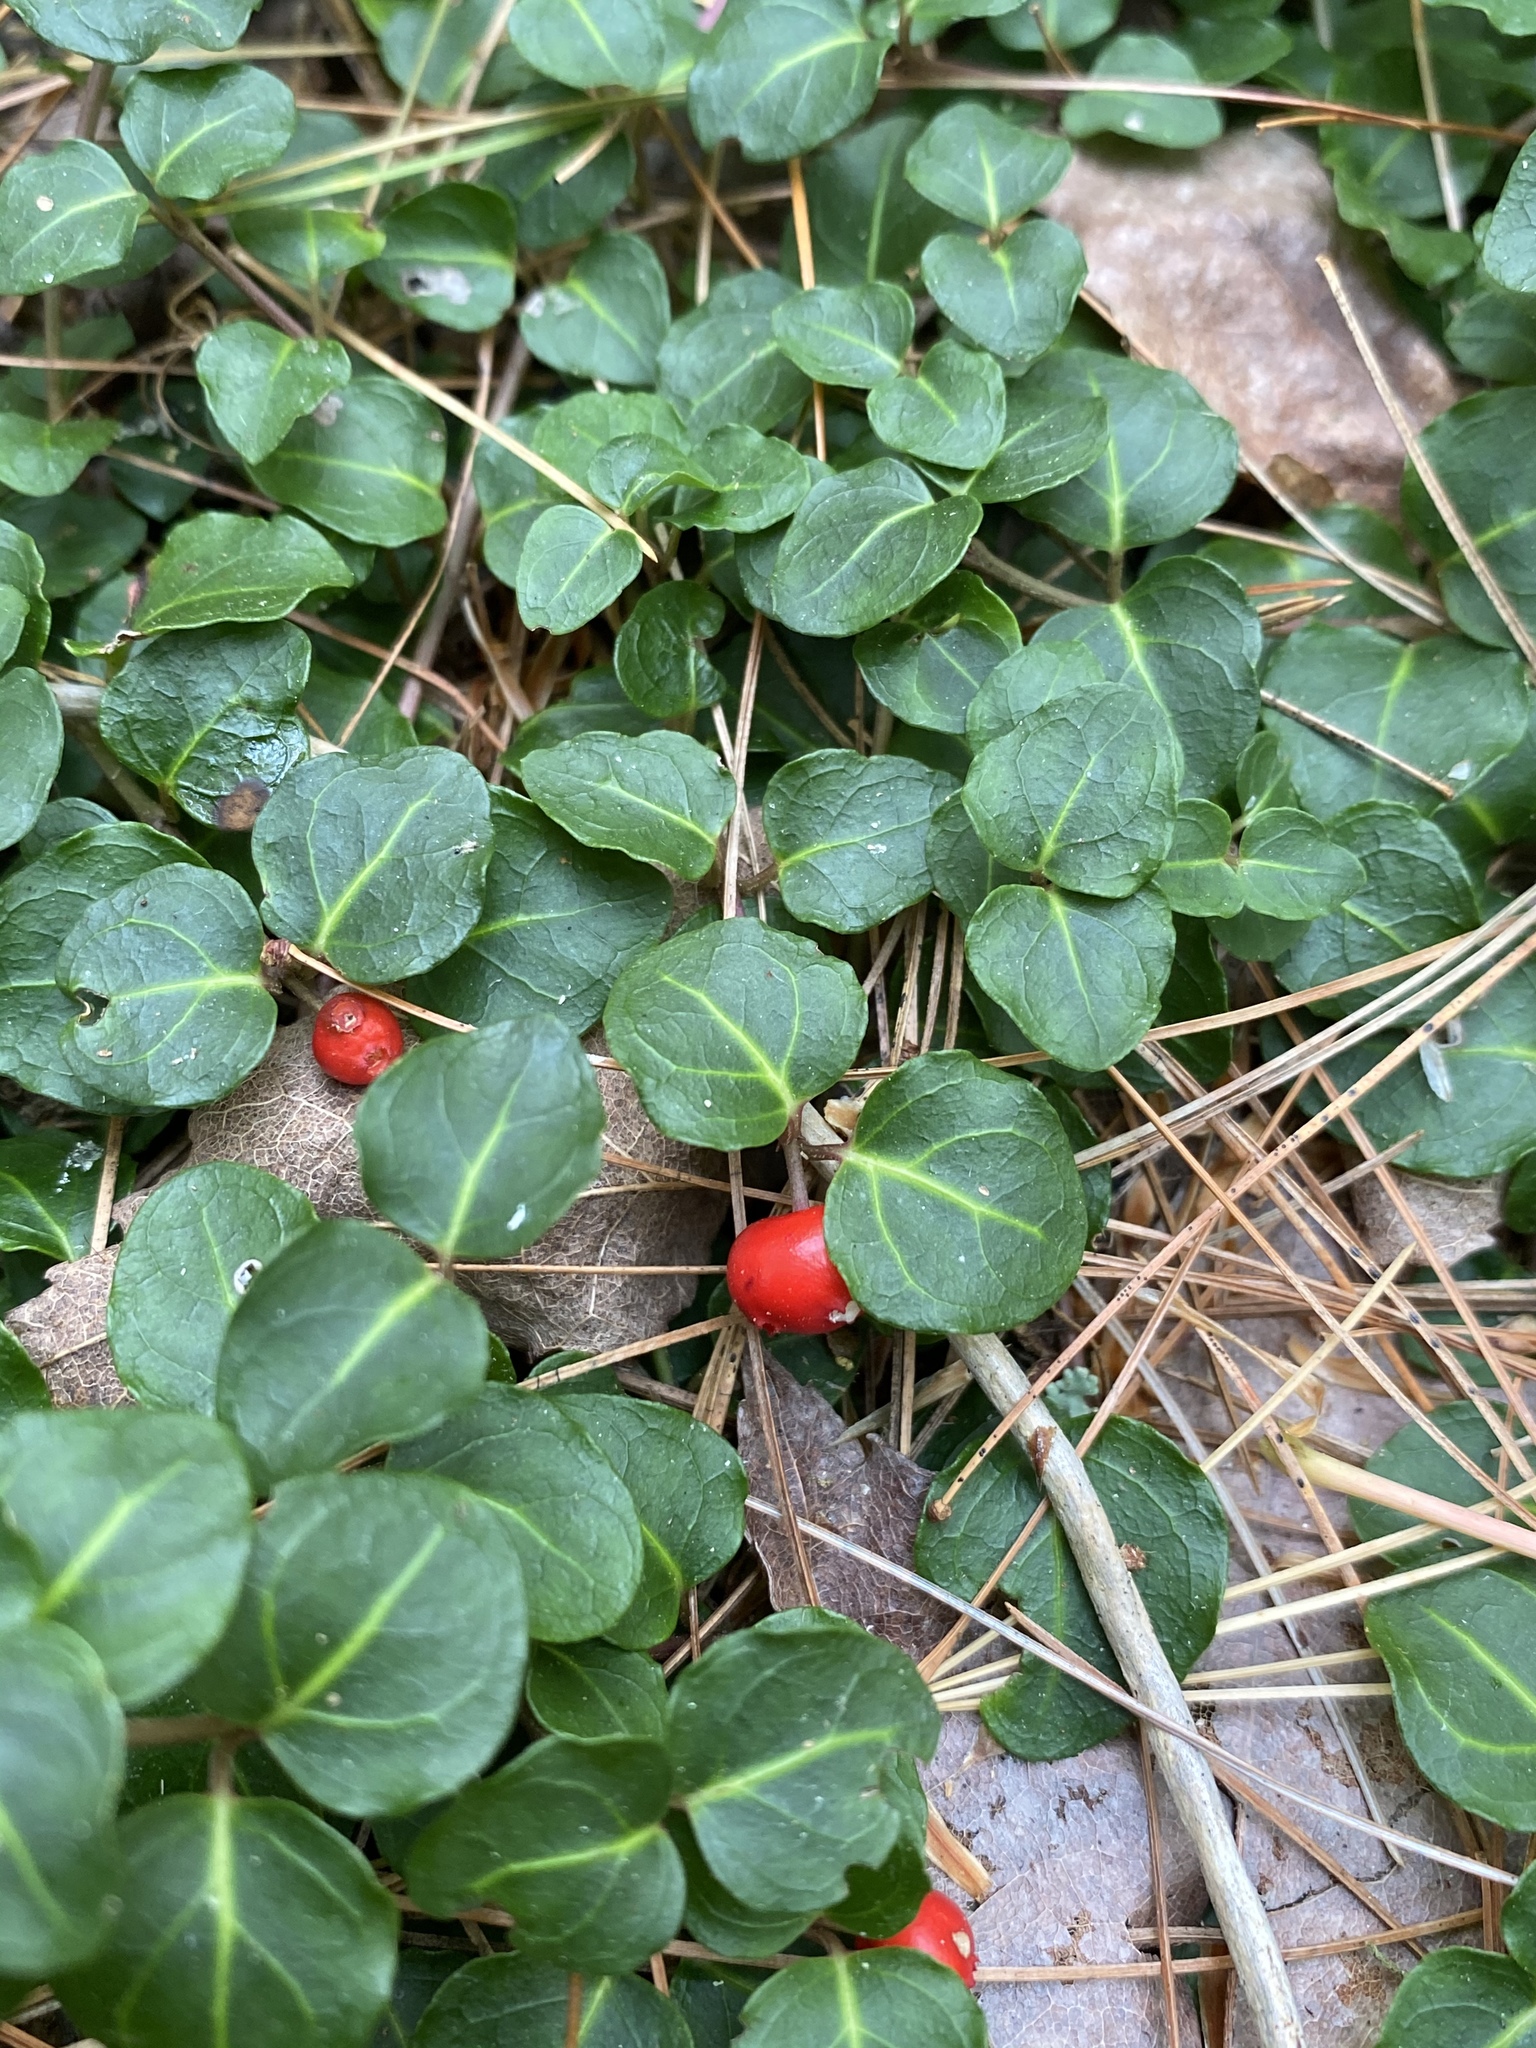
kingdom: Plantae
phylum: Tracheophyta
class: Magnoliopsida
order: Gentianales
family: Rubiaceae
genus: Mitchella
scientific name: Mitchella repens
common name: Partridge-berry
